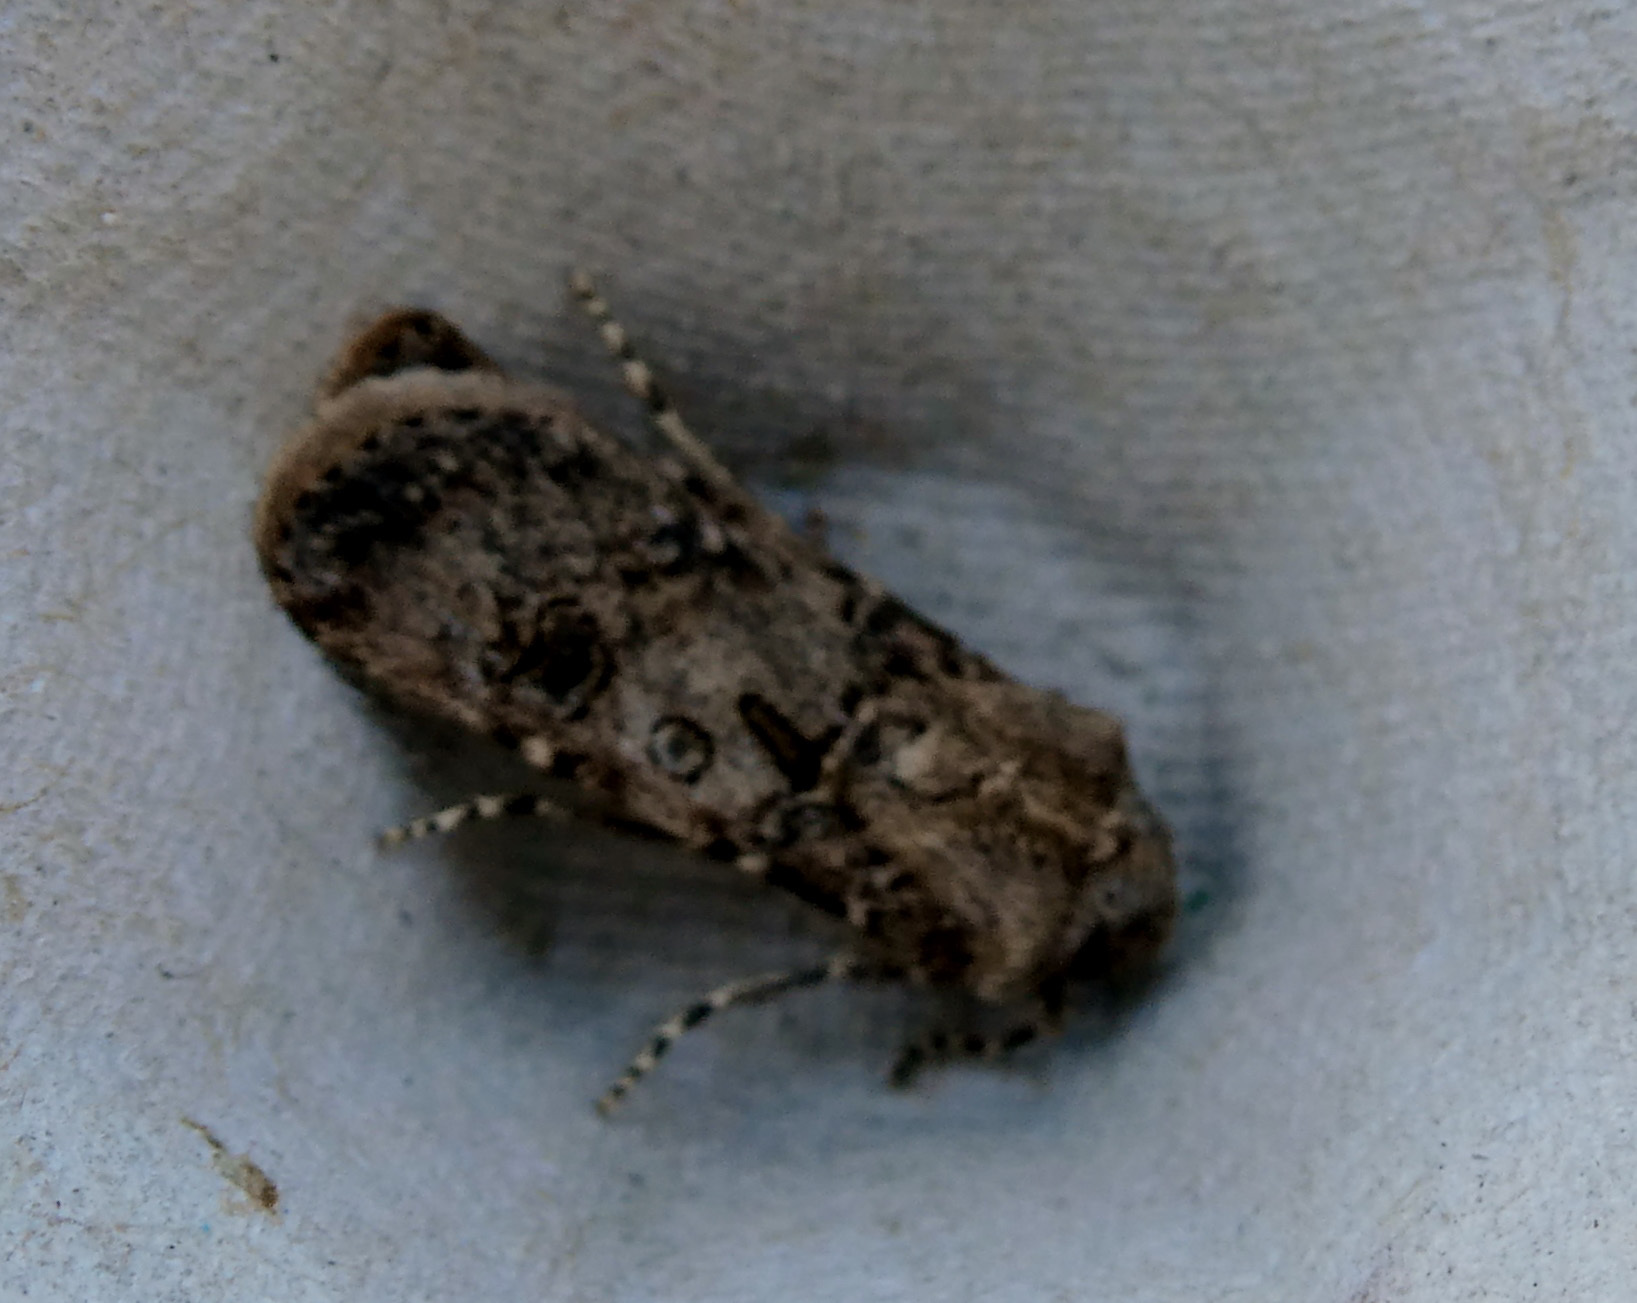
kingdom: Animalia
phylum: Arthropoda
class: Insecta
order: Lepidoptera
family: Noctuidae
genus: Agrotis
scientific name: Agrotis segetum
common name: Turnip moth
